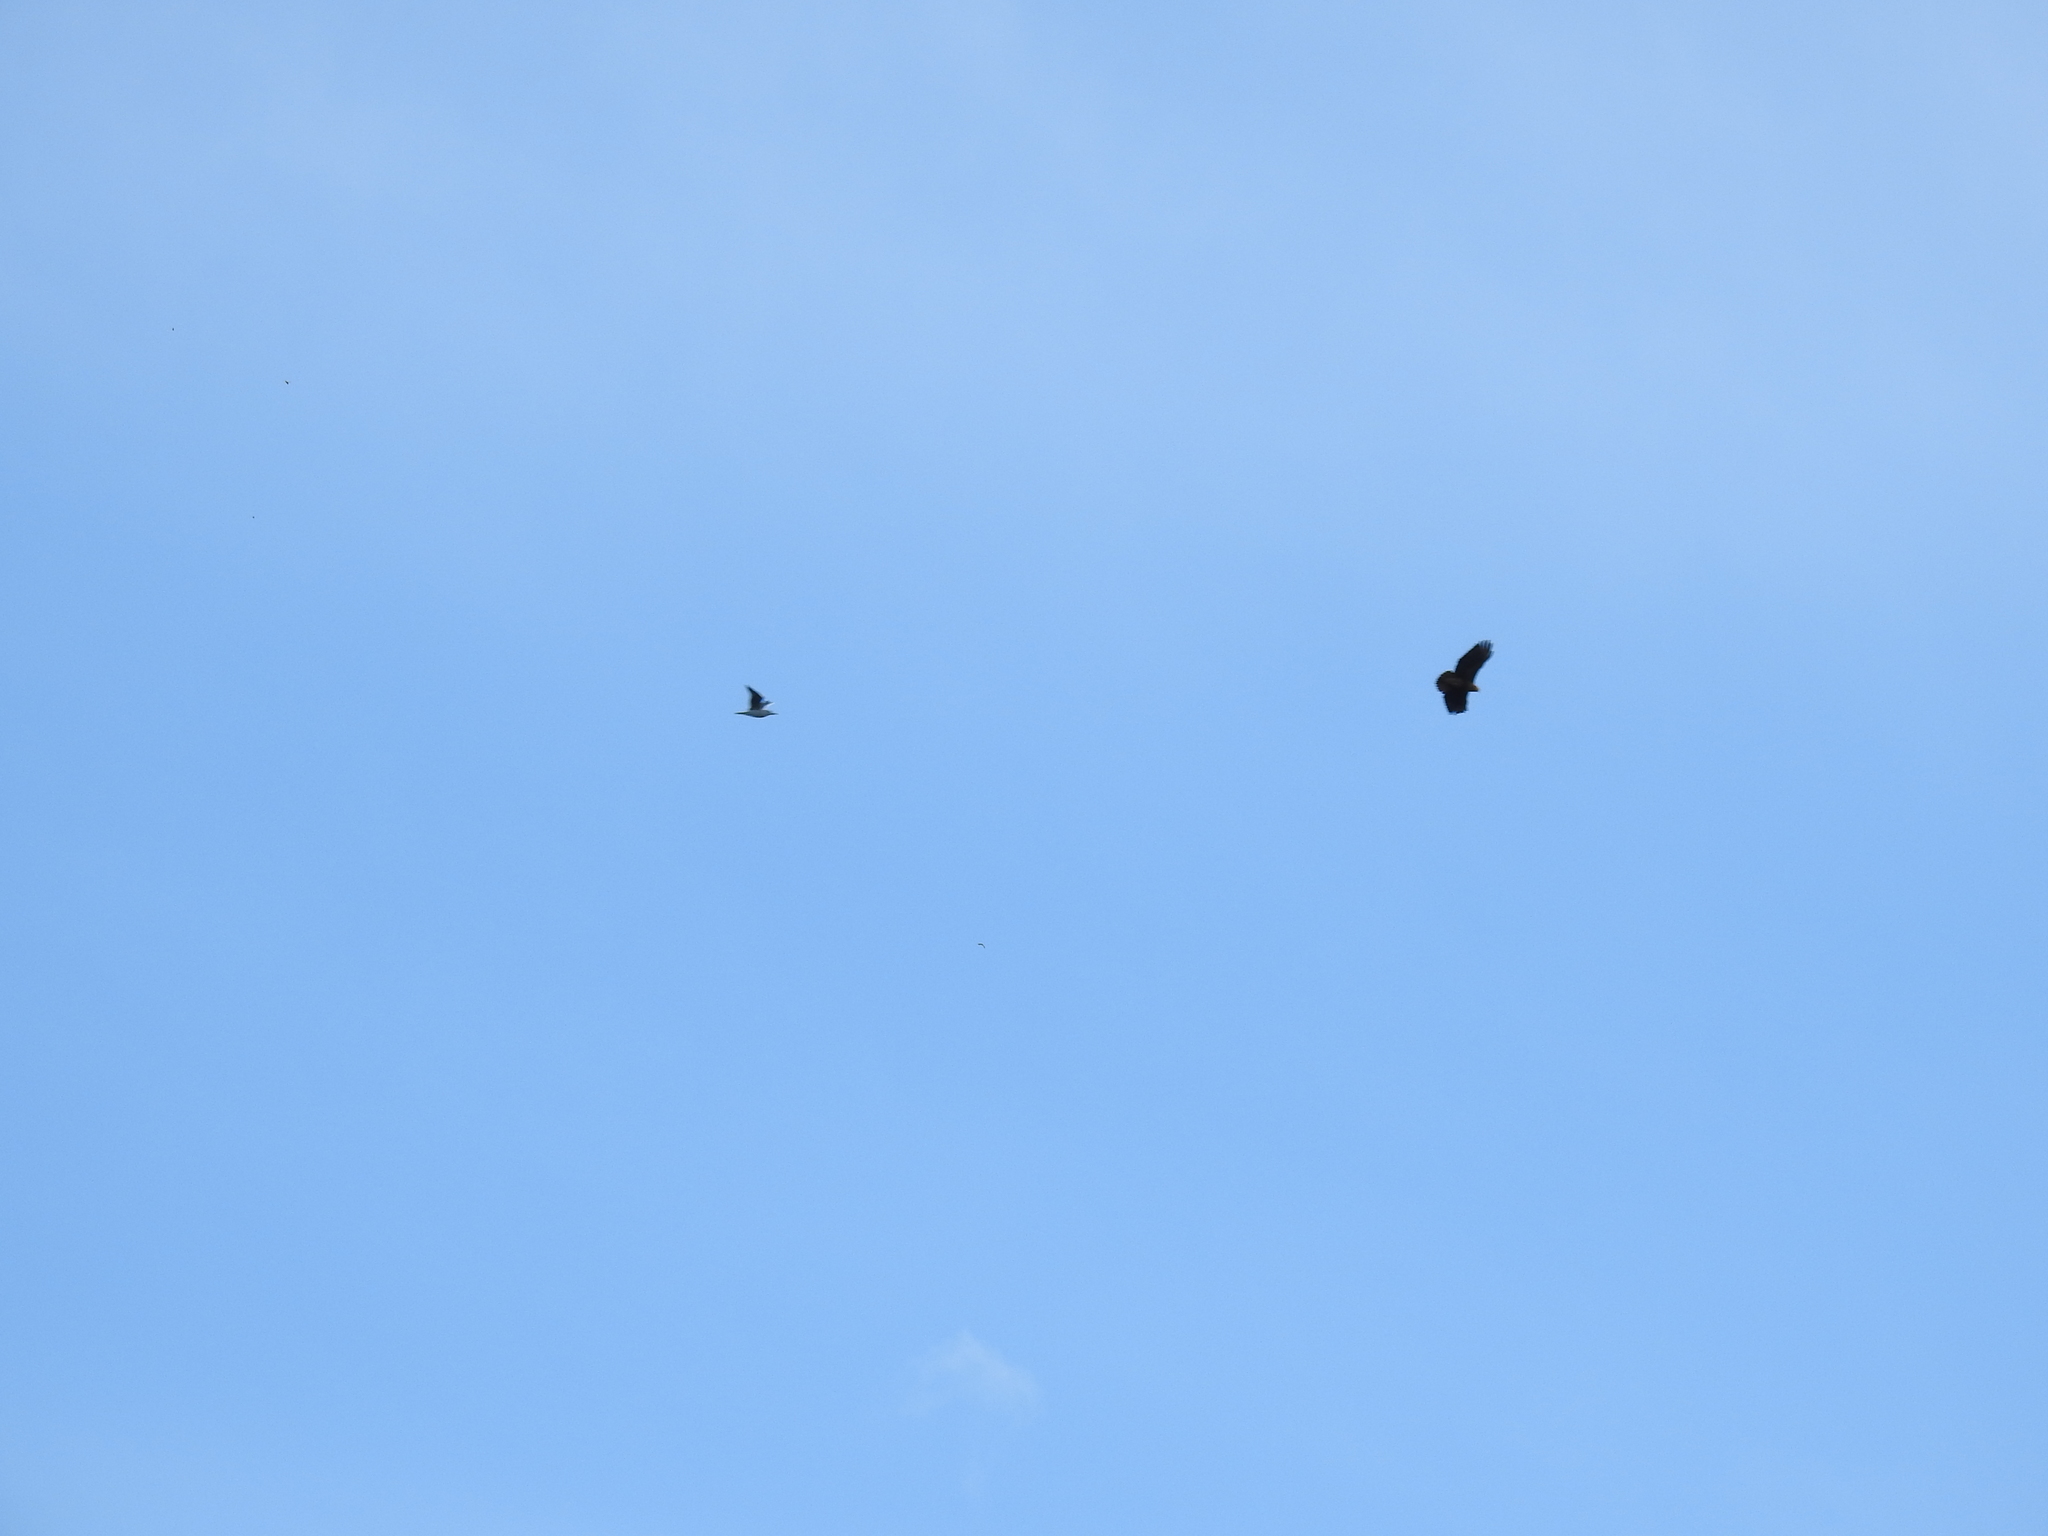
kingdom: Animalia
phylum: Chordata
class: Aves
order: Accipitriformes
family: Accipitridae
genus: Buteo
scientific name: Buteo jamaicensis
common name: Red-tailed hawk
